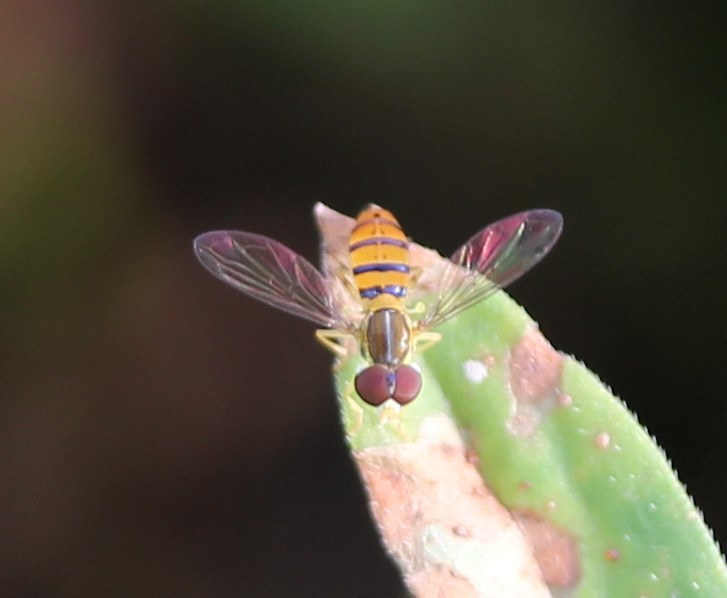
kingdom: Animalia
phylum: Arthropoda
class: Insecta
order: Diptera
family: Syrphidae
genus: Toxomerus
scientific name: Toxomerus corbis
